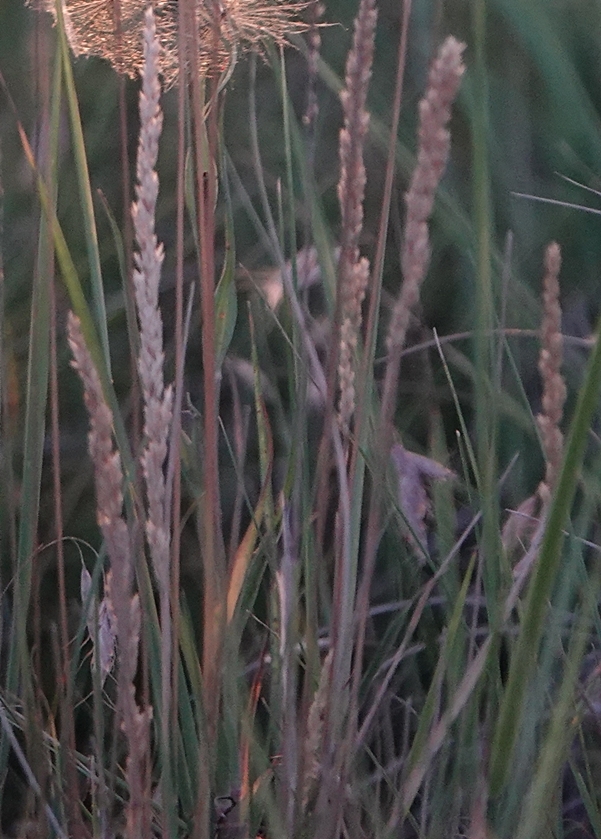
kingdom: Plantae
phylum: Tracheophyta
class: Liliopsida
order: Poales
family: Poaceae
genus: Koeleria
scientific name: Koeleria macrantha
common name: Crested hair-grass
